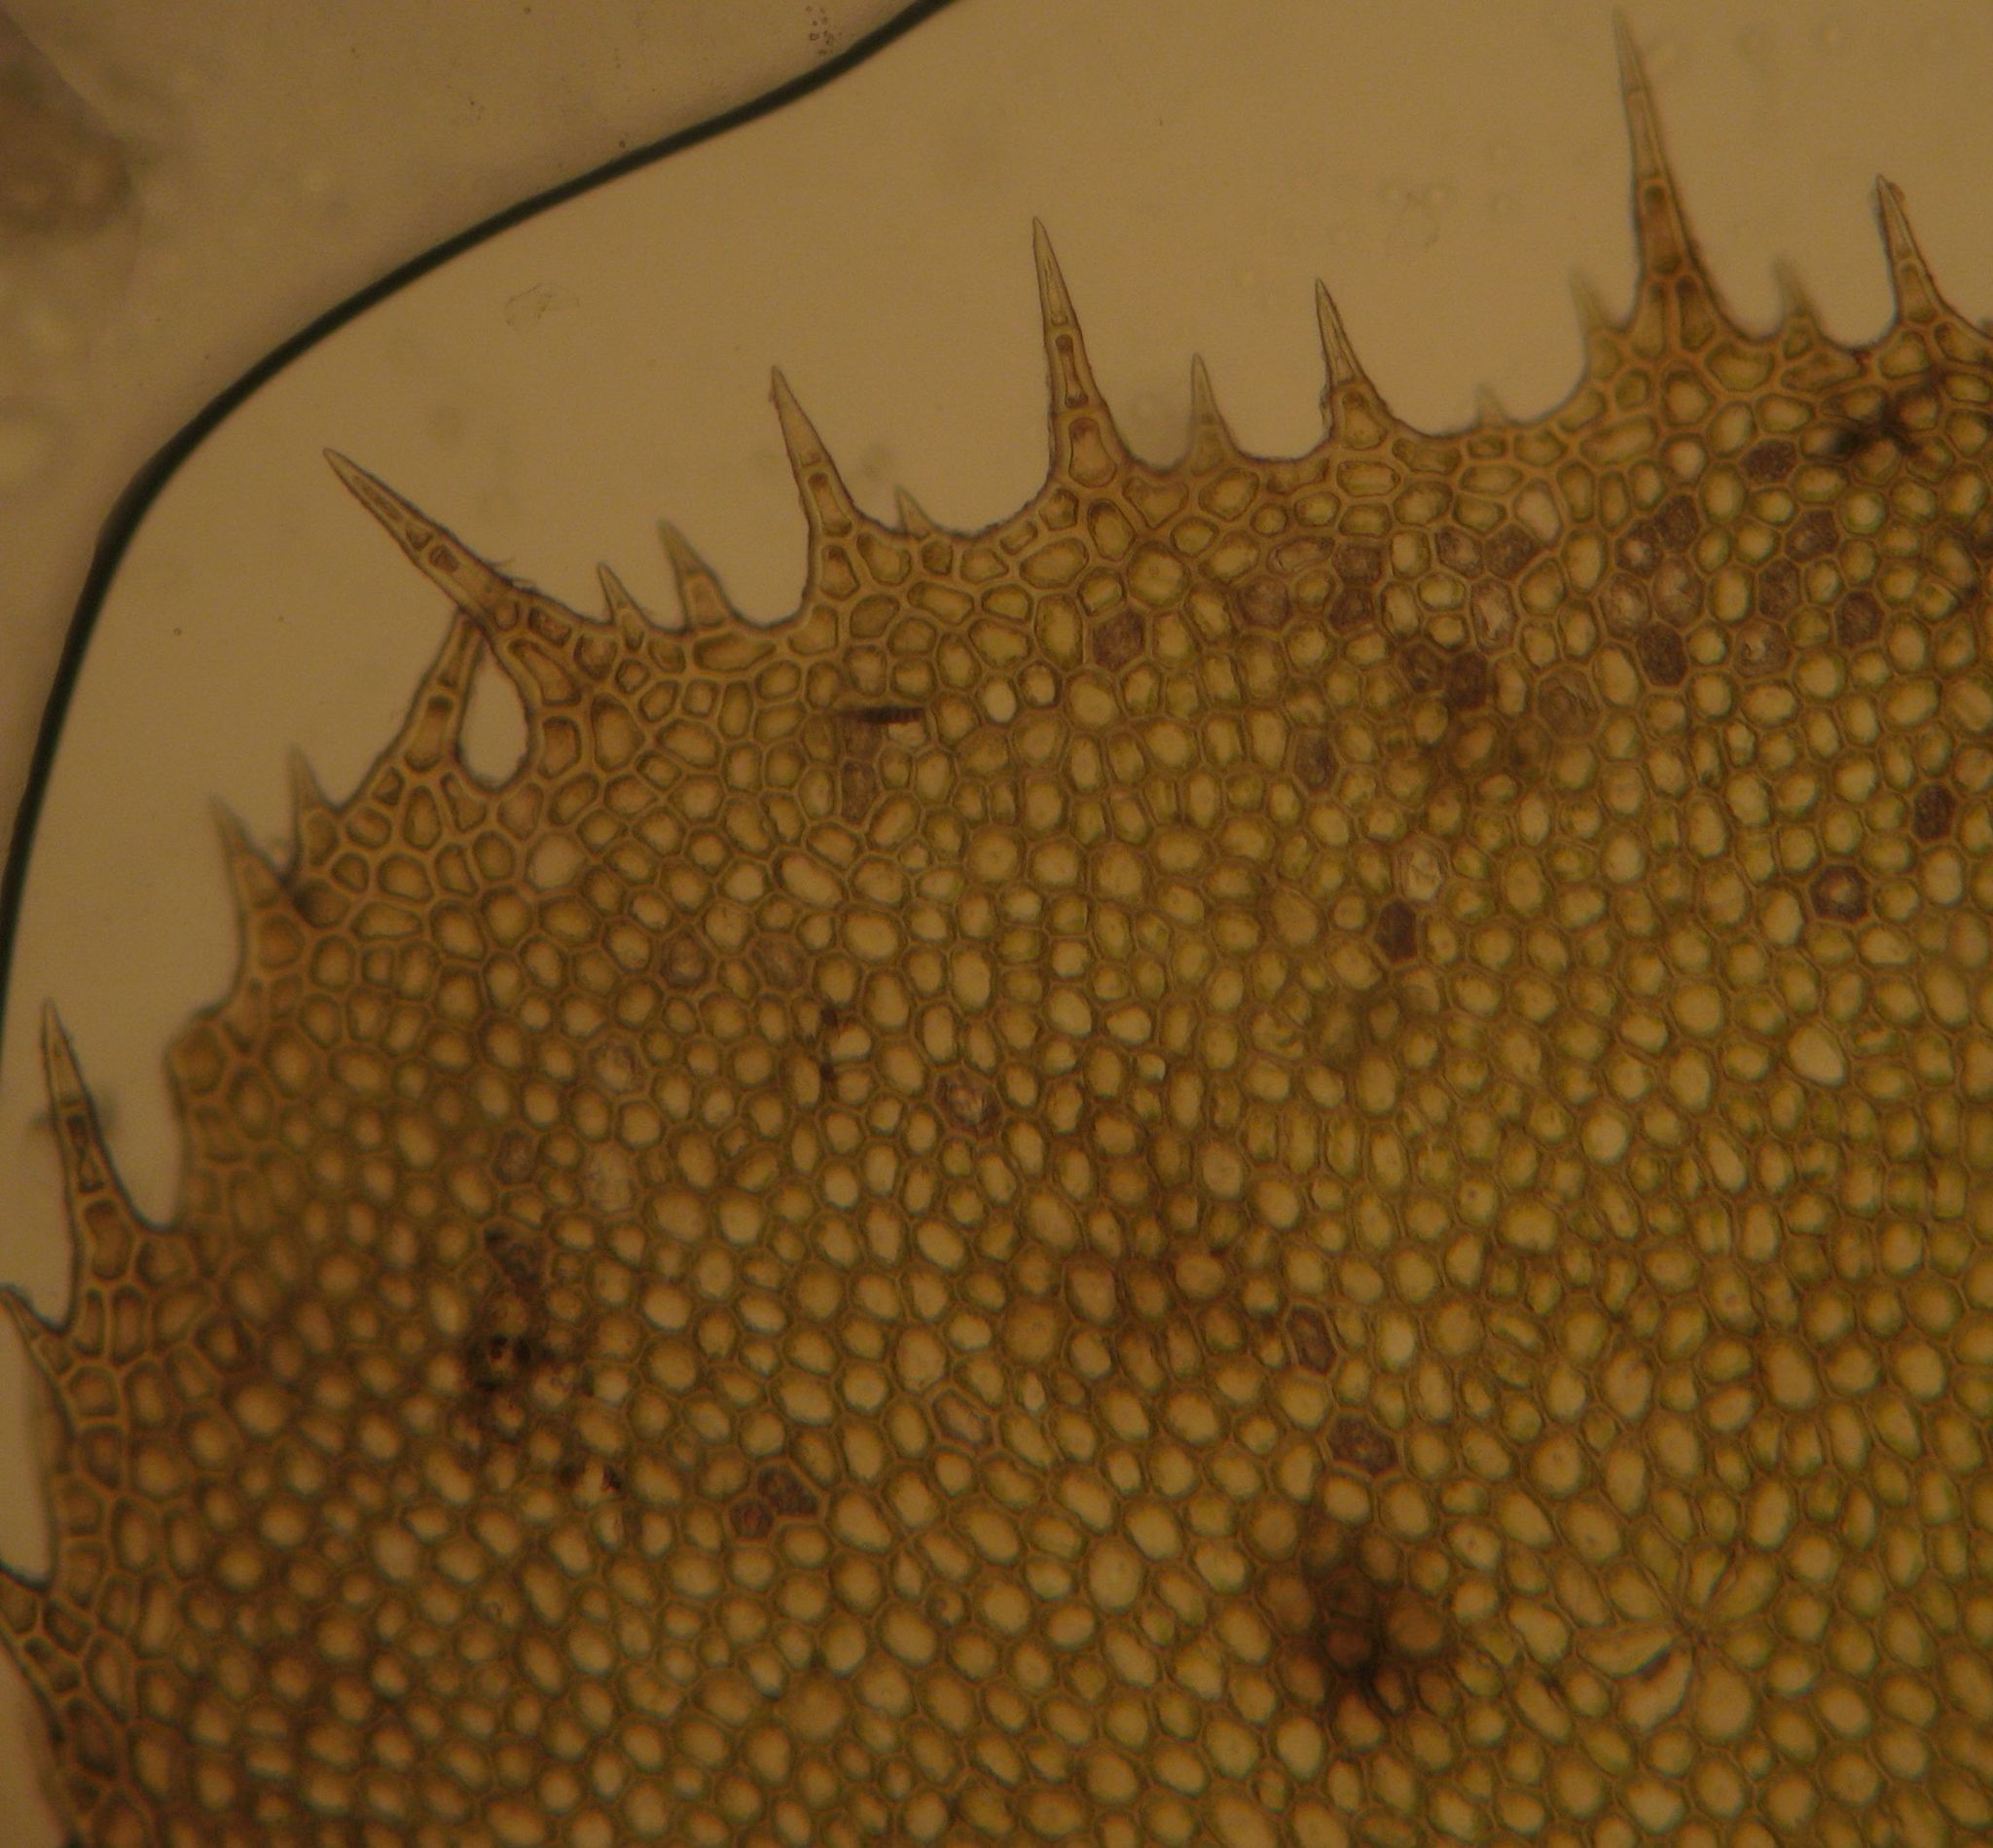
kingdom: Plantae
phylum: Marchantiophyta
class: Jungermanniopsida
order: Jungermanniales
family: Plagiochilaceae
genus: Plagiochila
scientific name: Plagiochila gigantea
